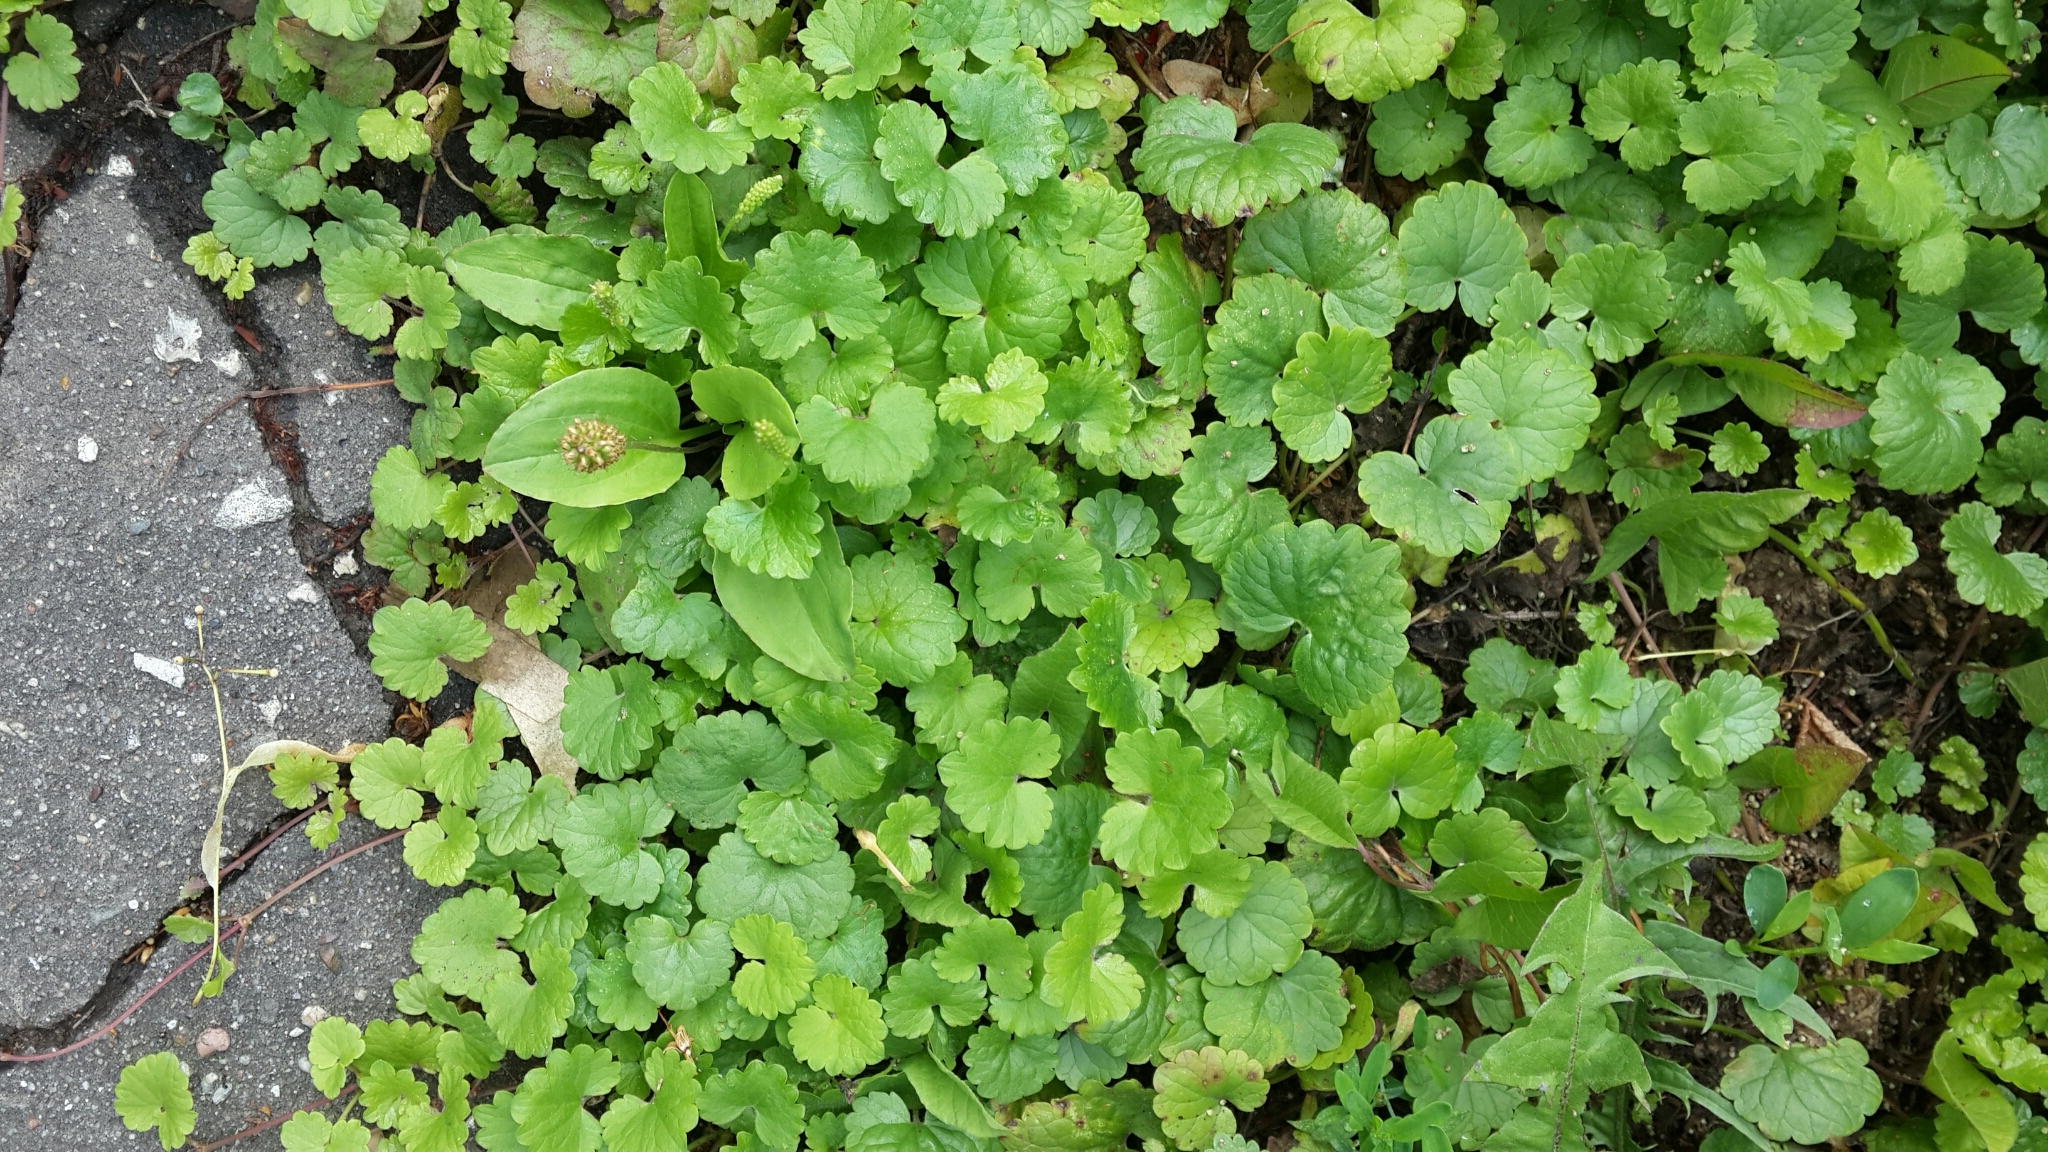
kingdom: Plantae
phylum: Tracheophyta
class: Magnoliopsida
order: Lamiales
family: Lamiaceae
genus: Glechoma
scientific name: Glechoma hederacea
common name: Ground ivy
